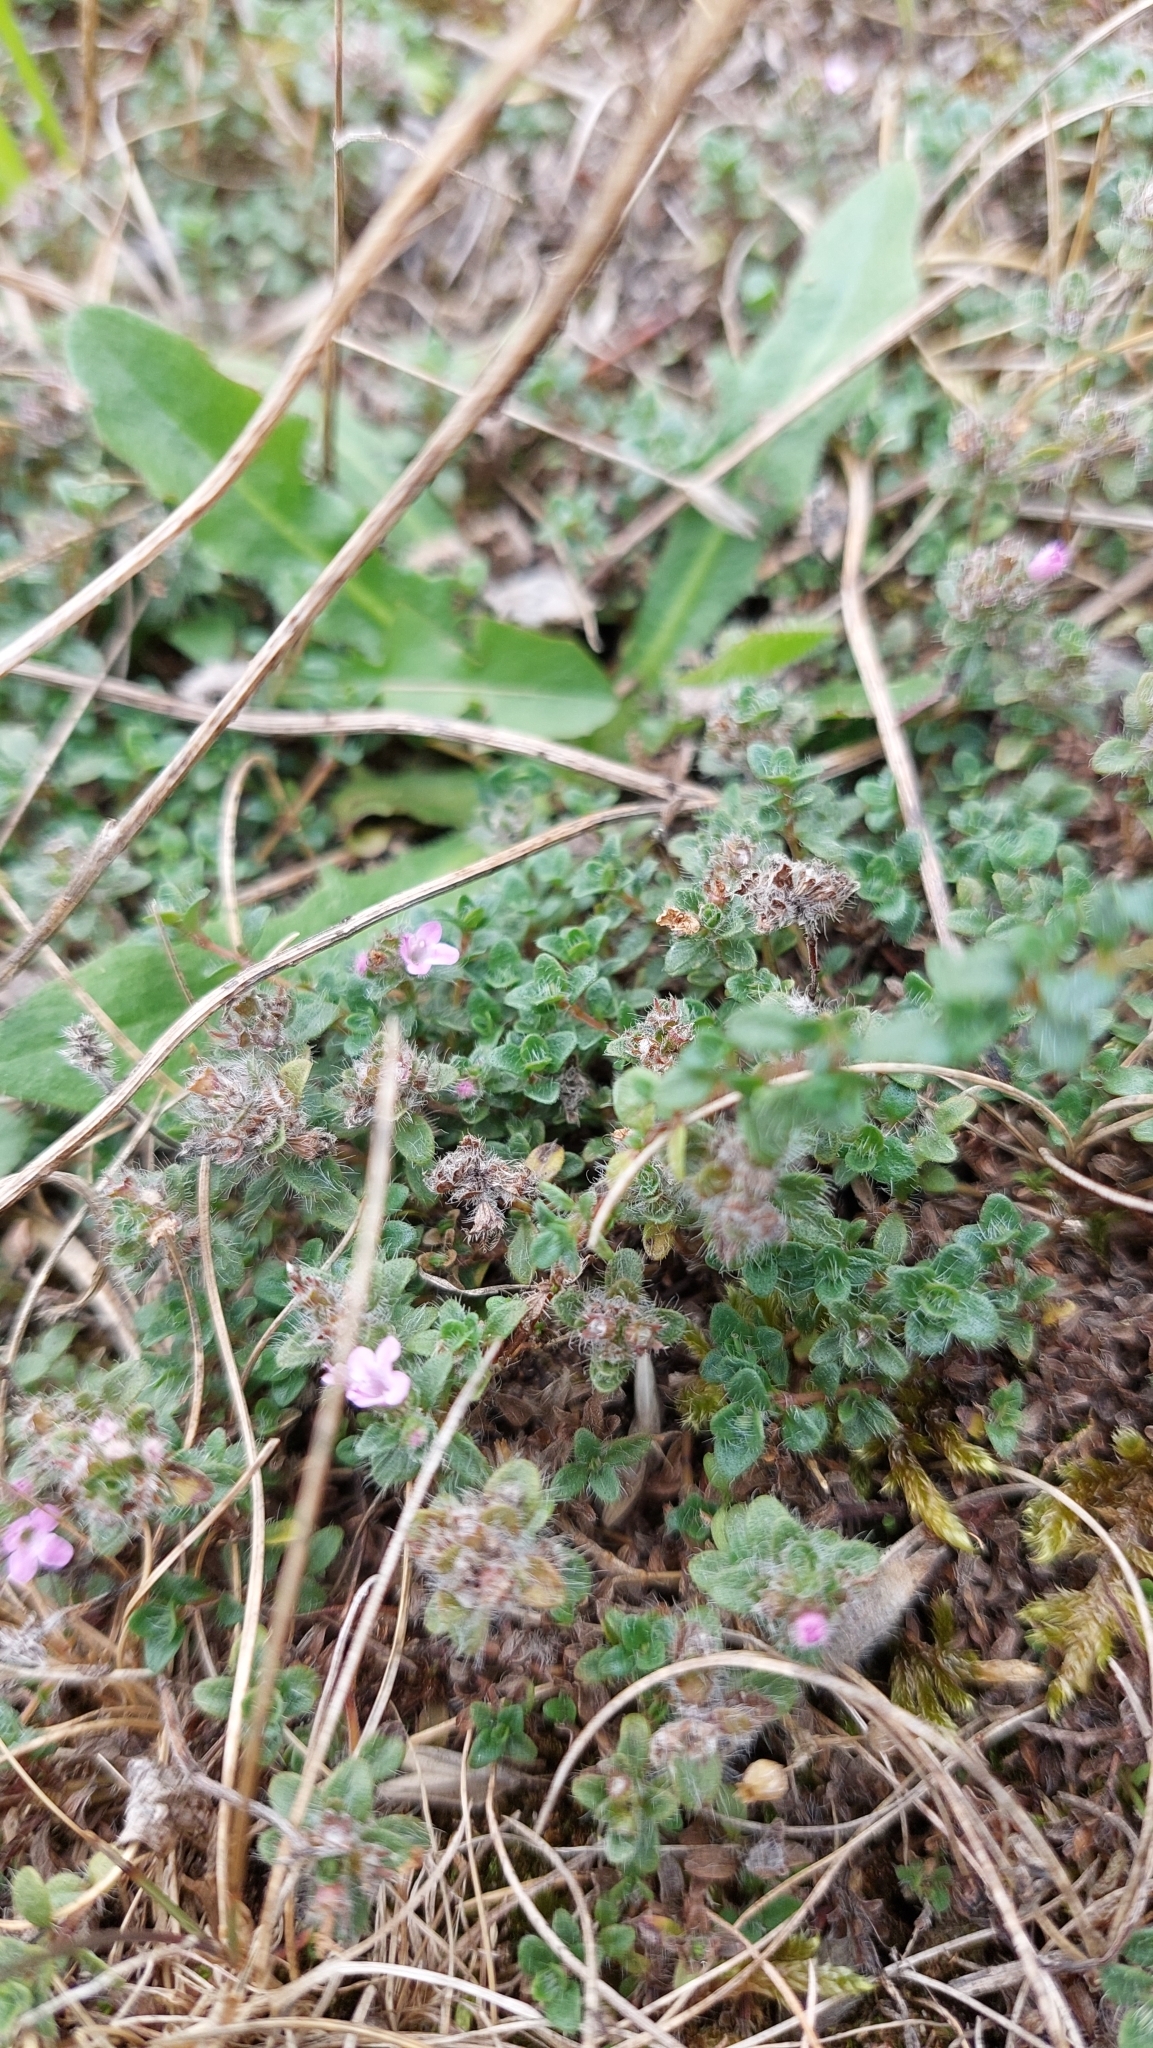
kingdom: Plantae
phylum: Tracheophyta
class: Magnoliopsida
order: Lamiales
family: Lamiaceae
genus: Thymus
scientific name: Thymus praecox
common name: Wild thyme
